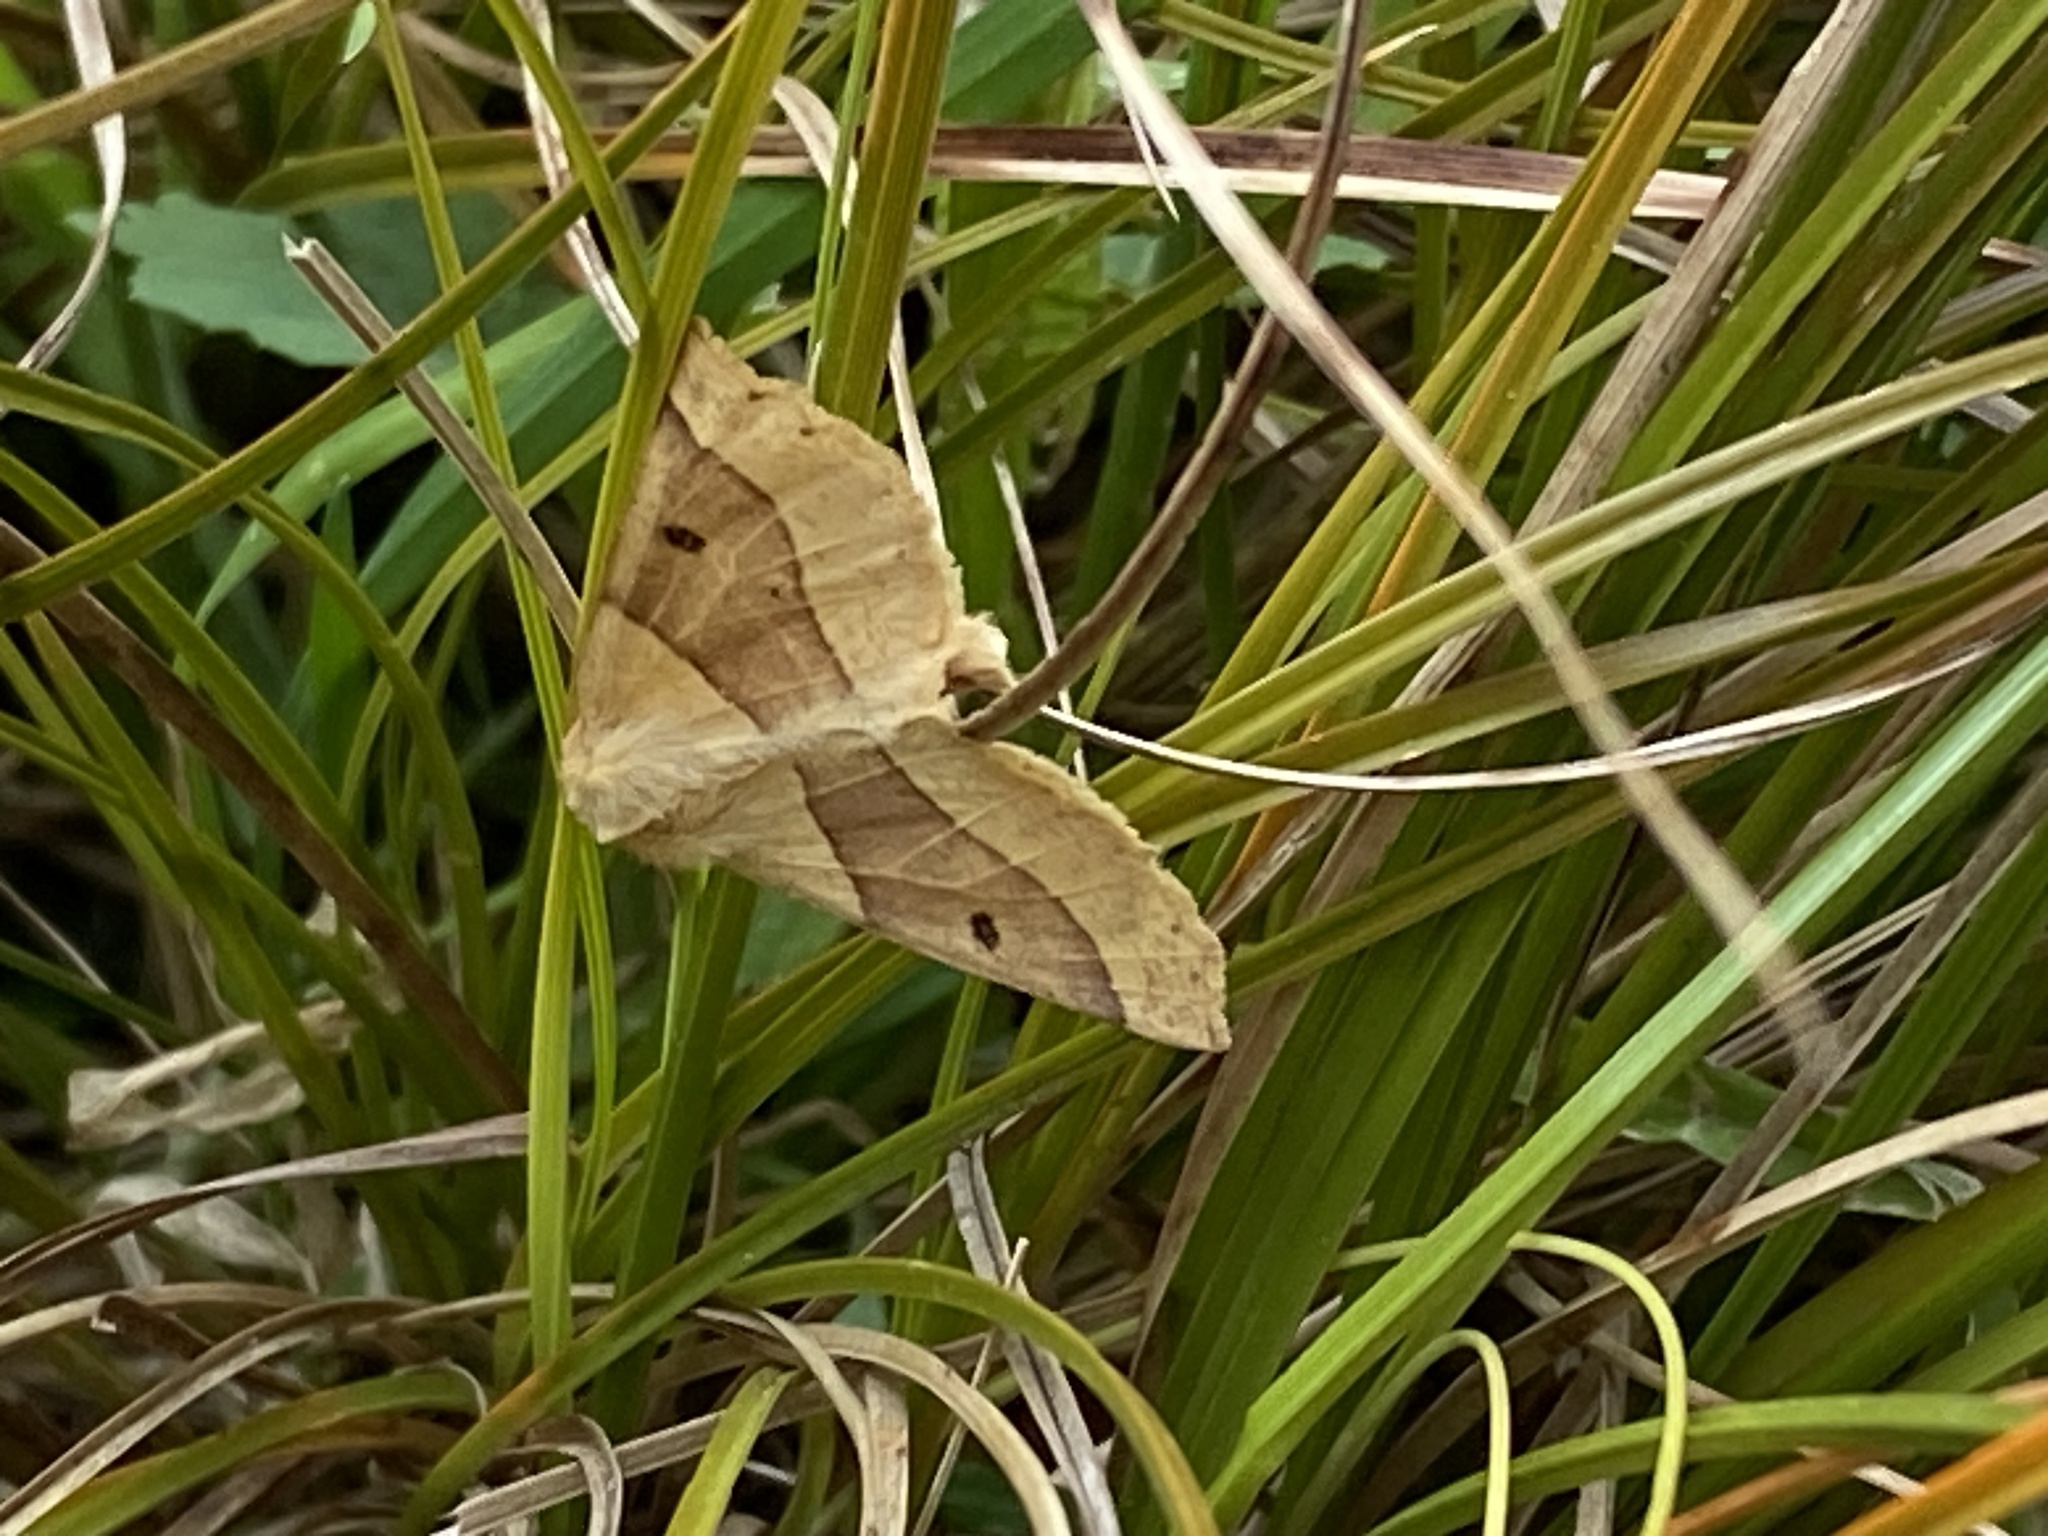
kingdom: Animalia
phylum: Arthropoda
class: Insecta
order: Lepidoptera
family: Geometridae
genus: Crocallis
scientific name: Crocallis elinguaria
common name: Scalloped oak
